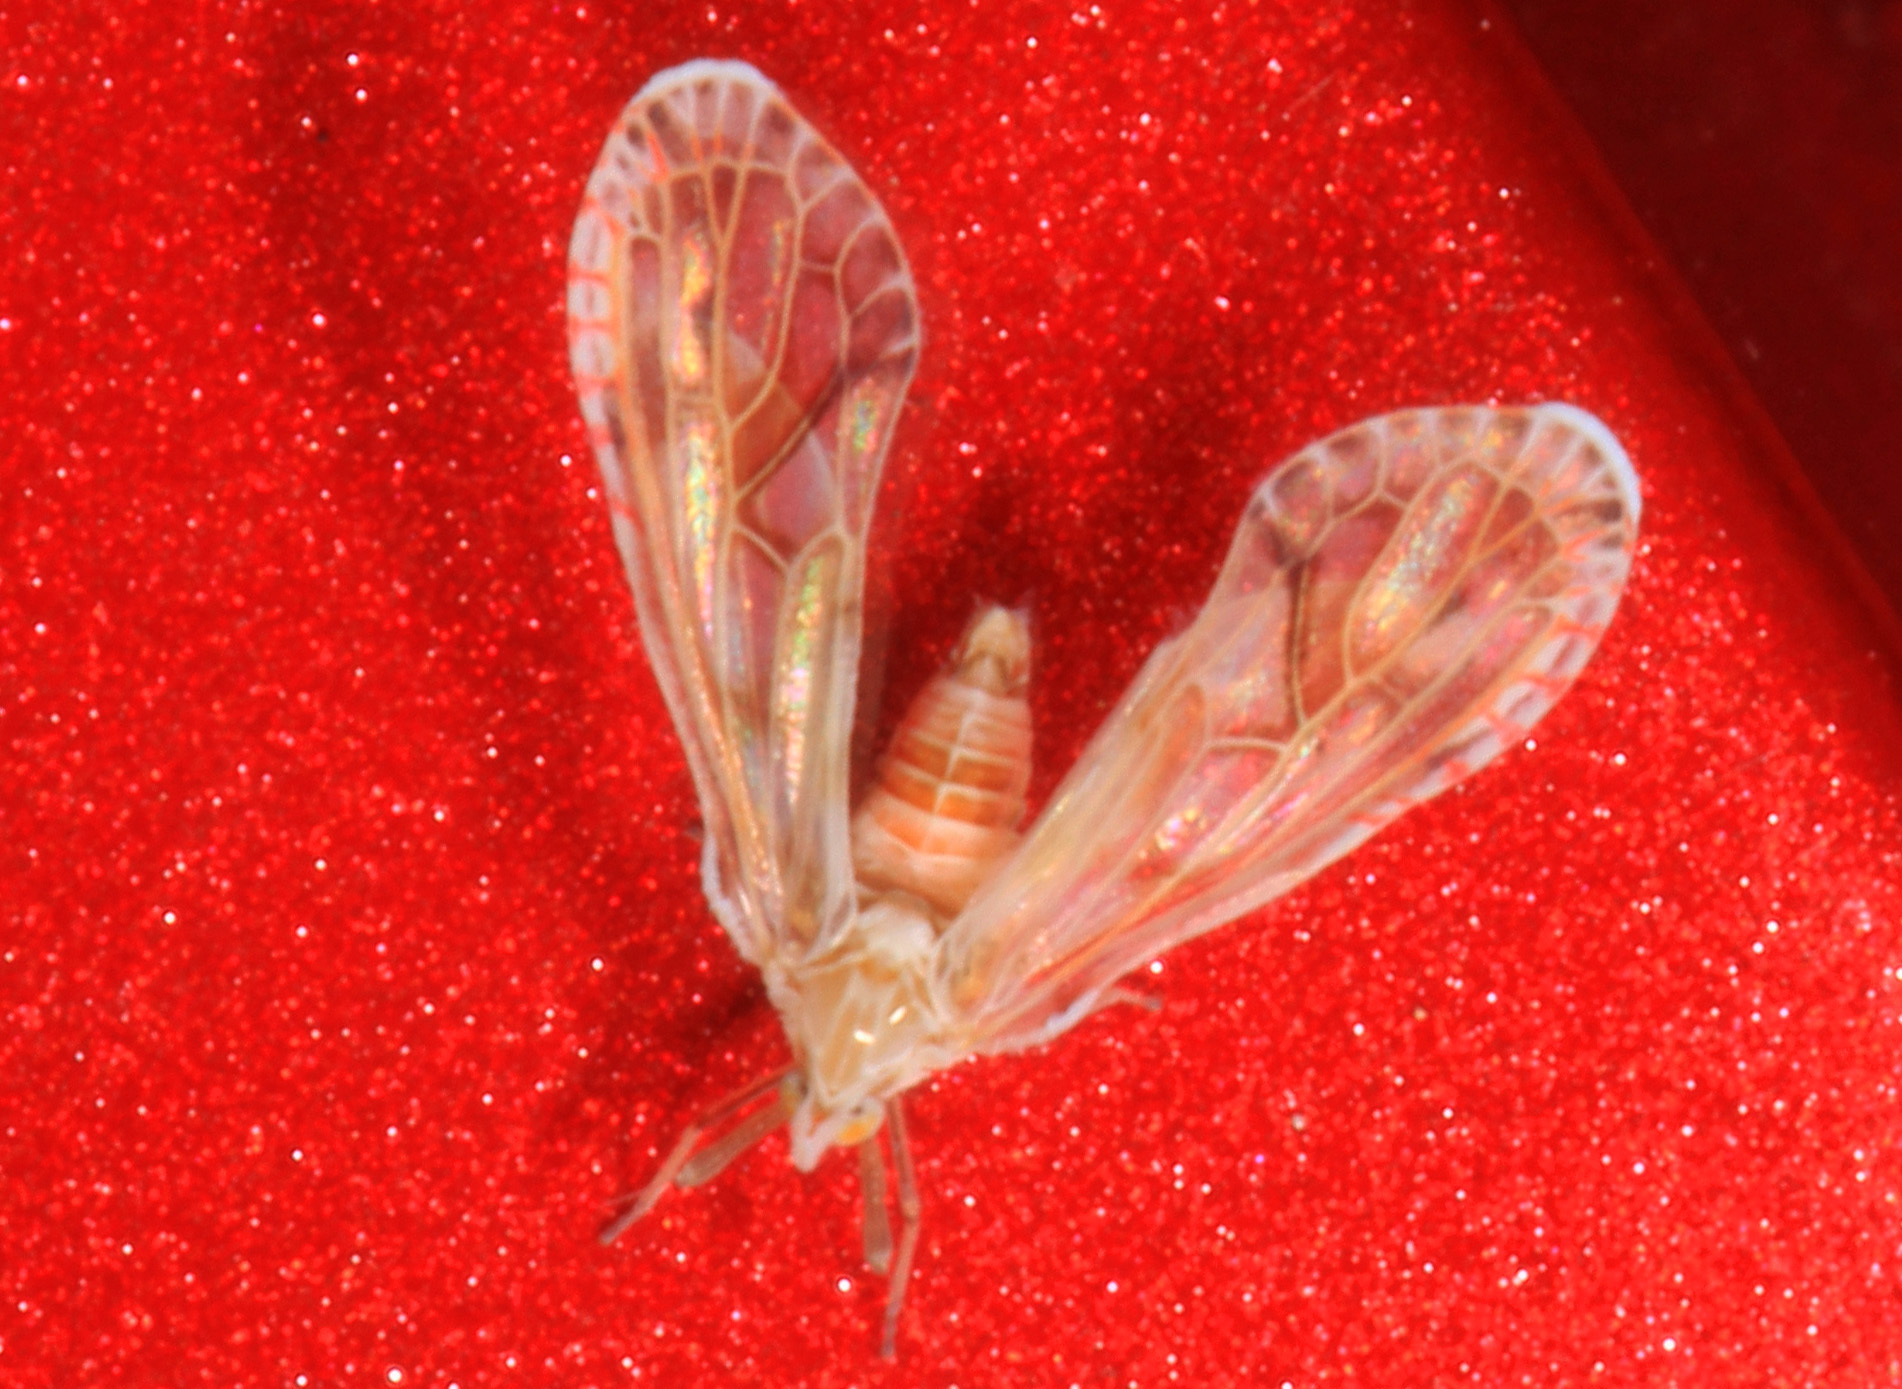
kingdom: Animalia
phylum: Arthropoda
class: Insecta
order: Hemiptera
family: Derbidae
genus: Anotia
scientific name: Anotia kirkaldyi
